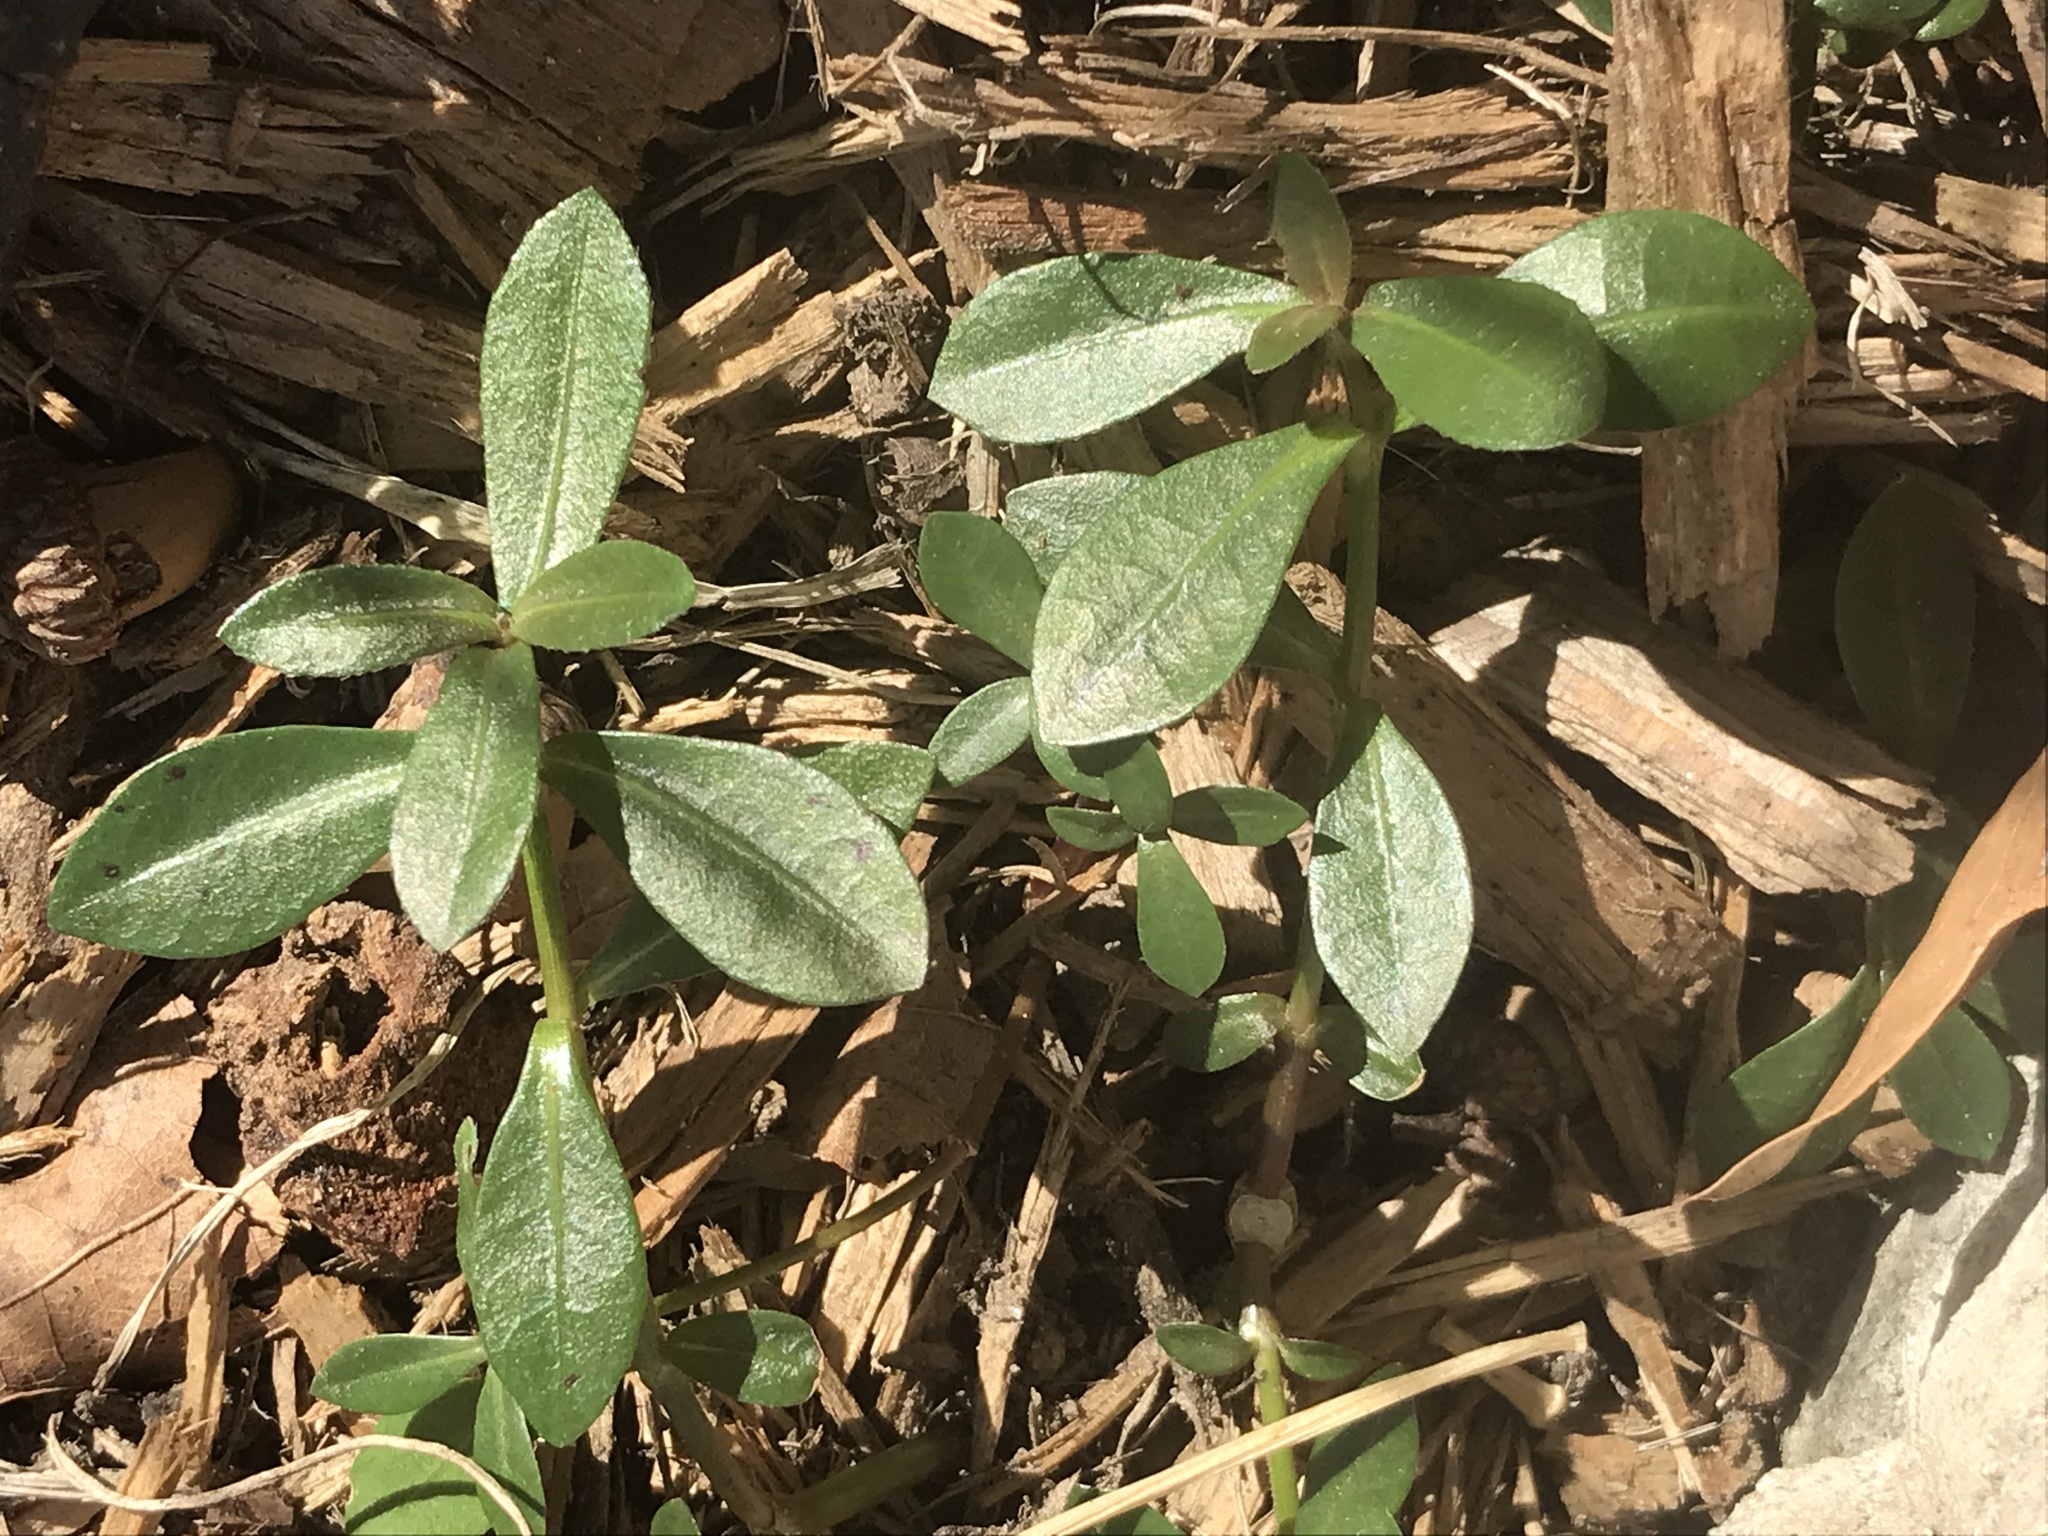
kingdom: Plantae
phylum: Tracheophyta
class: Magnoliopsida
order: Caryophyllales
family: Amaranthaceae
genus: Alternanthera
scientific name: Alternanthera philoxeroides
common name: Alligatorweed
